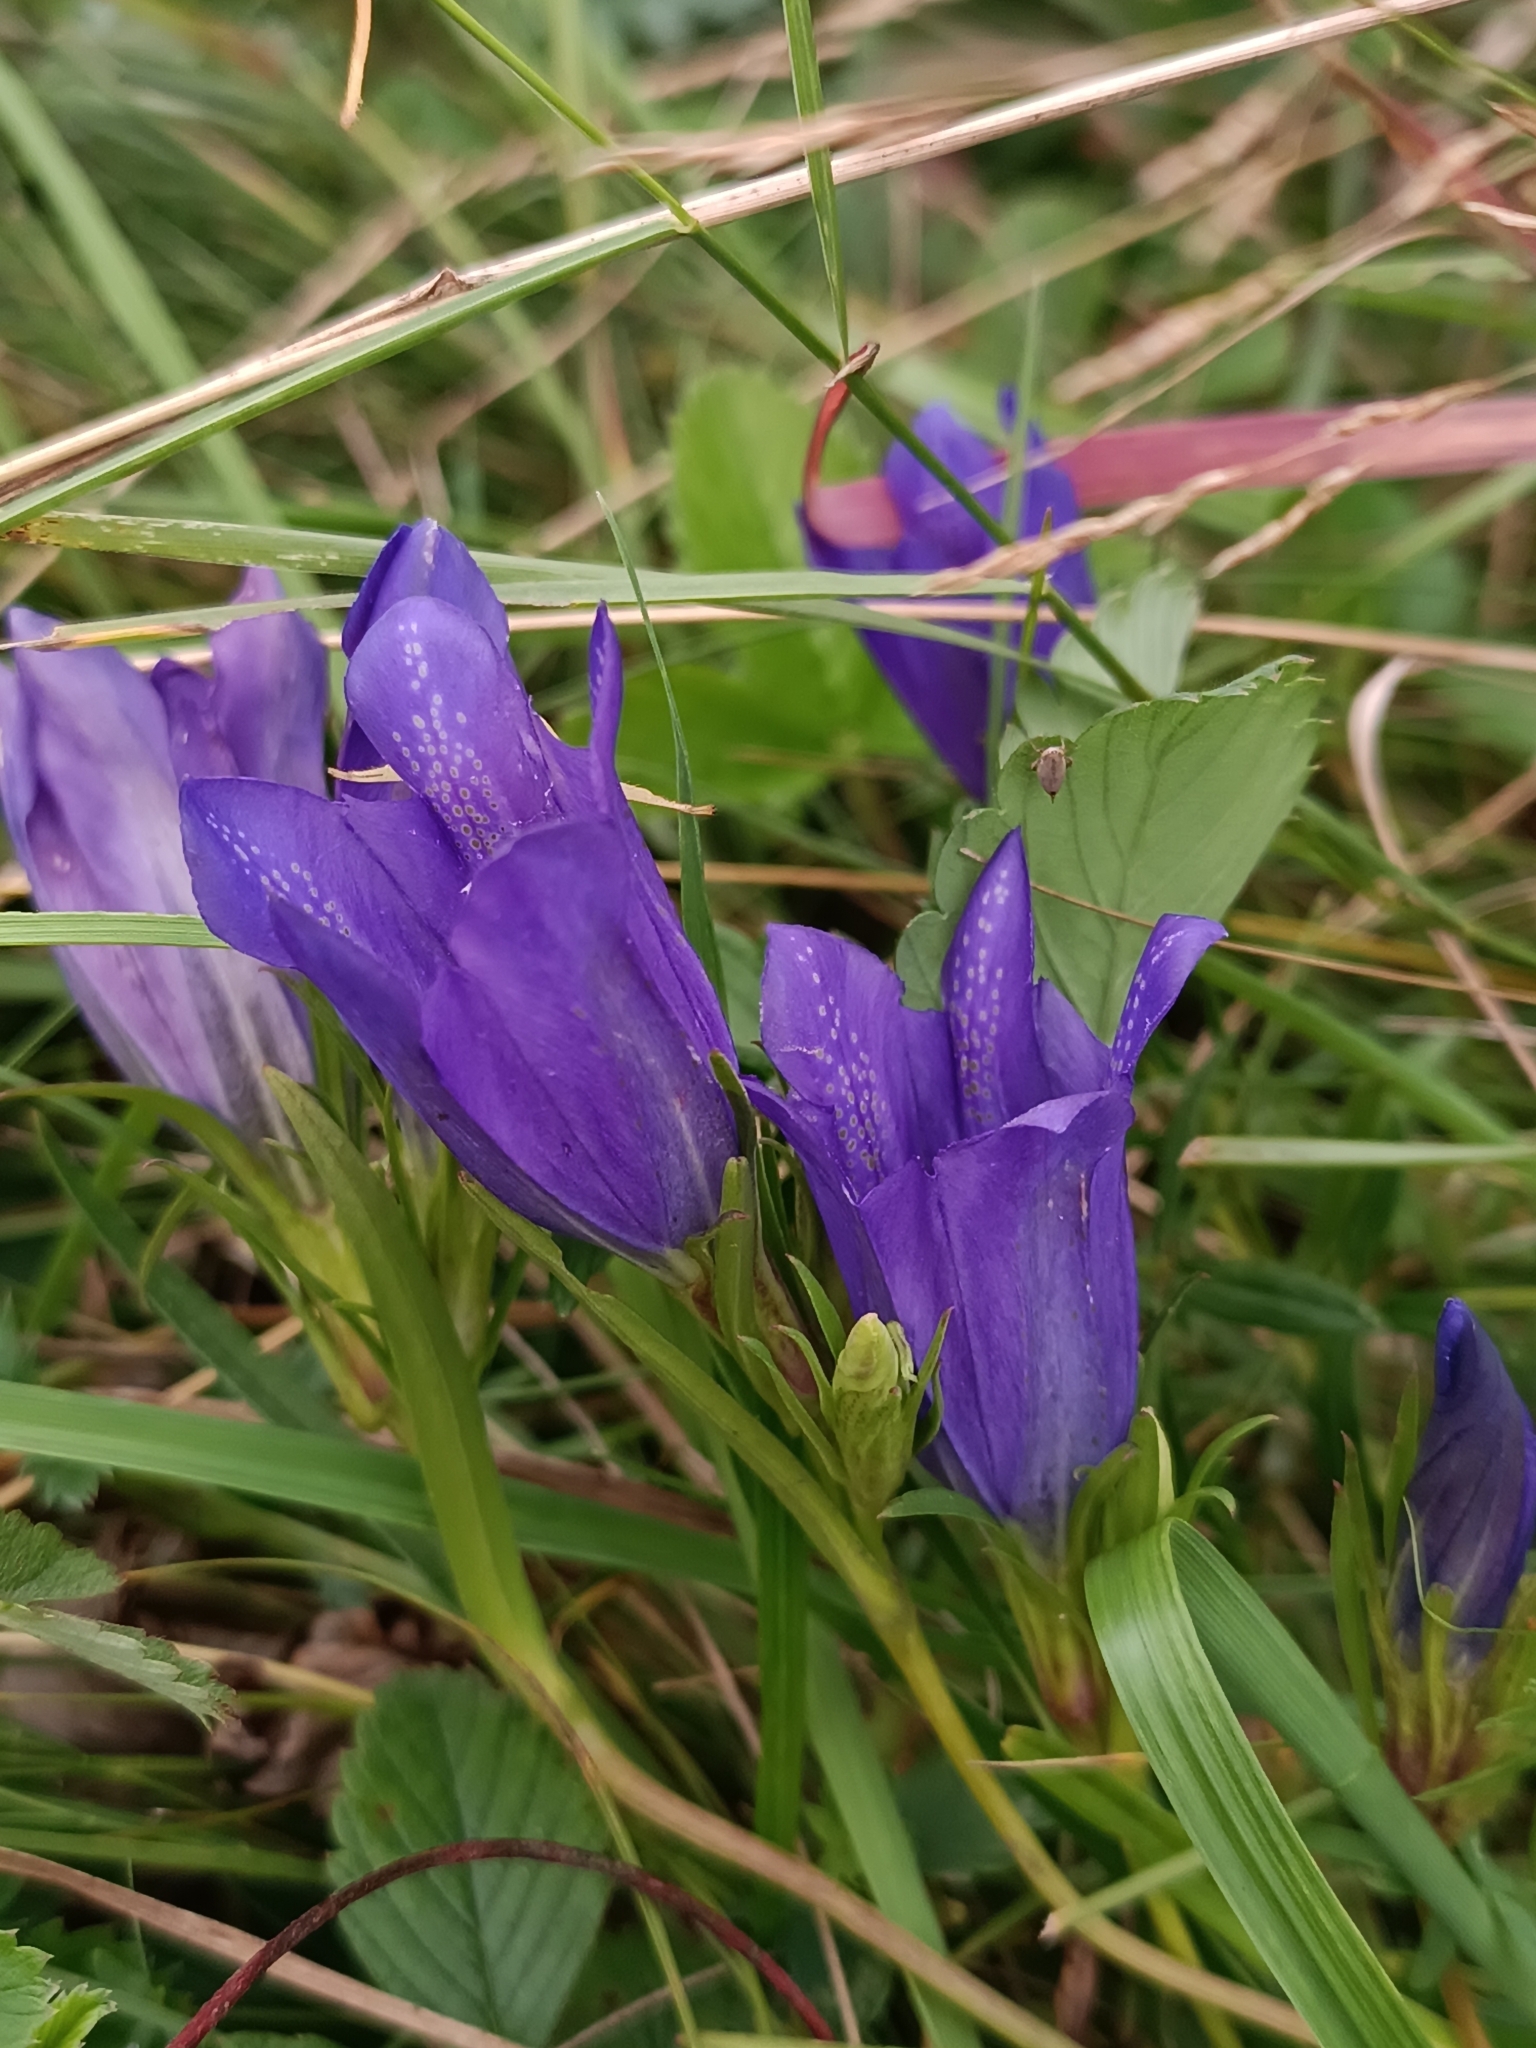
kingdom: Plantae
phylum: Tracheophyta
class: Magnoliopsida
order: Gentianales
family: Gentianaceae
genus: Gentiana
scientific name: Gentiana pneumonanthe
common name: Marsh gentian
